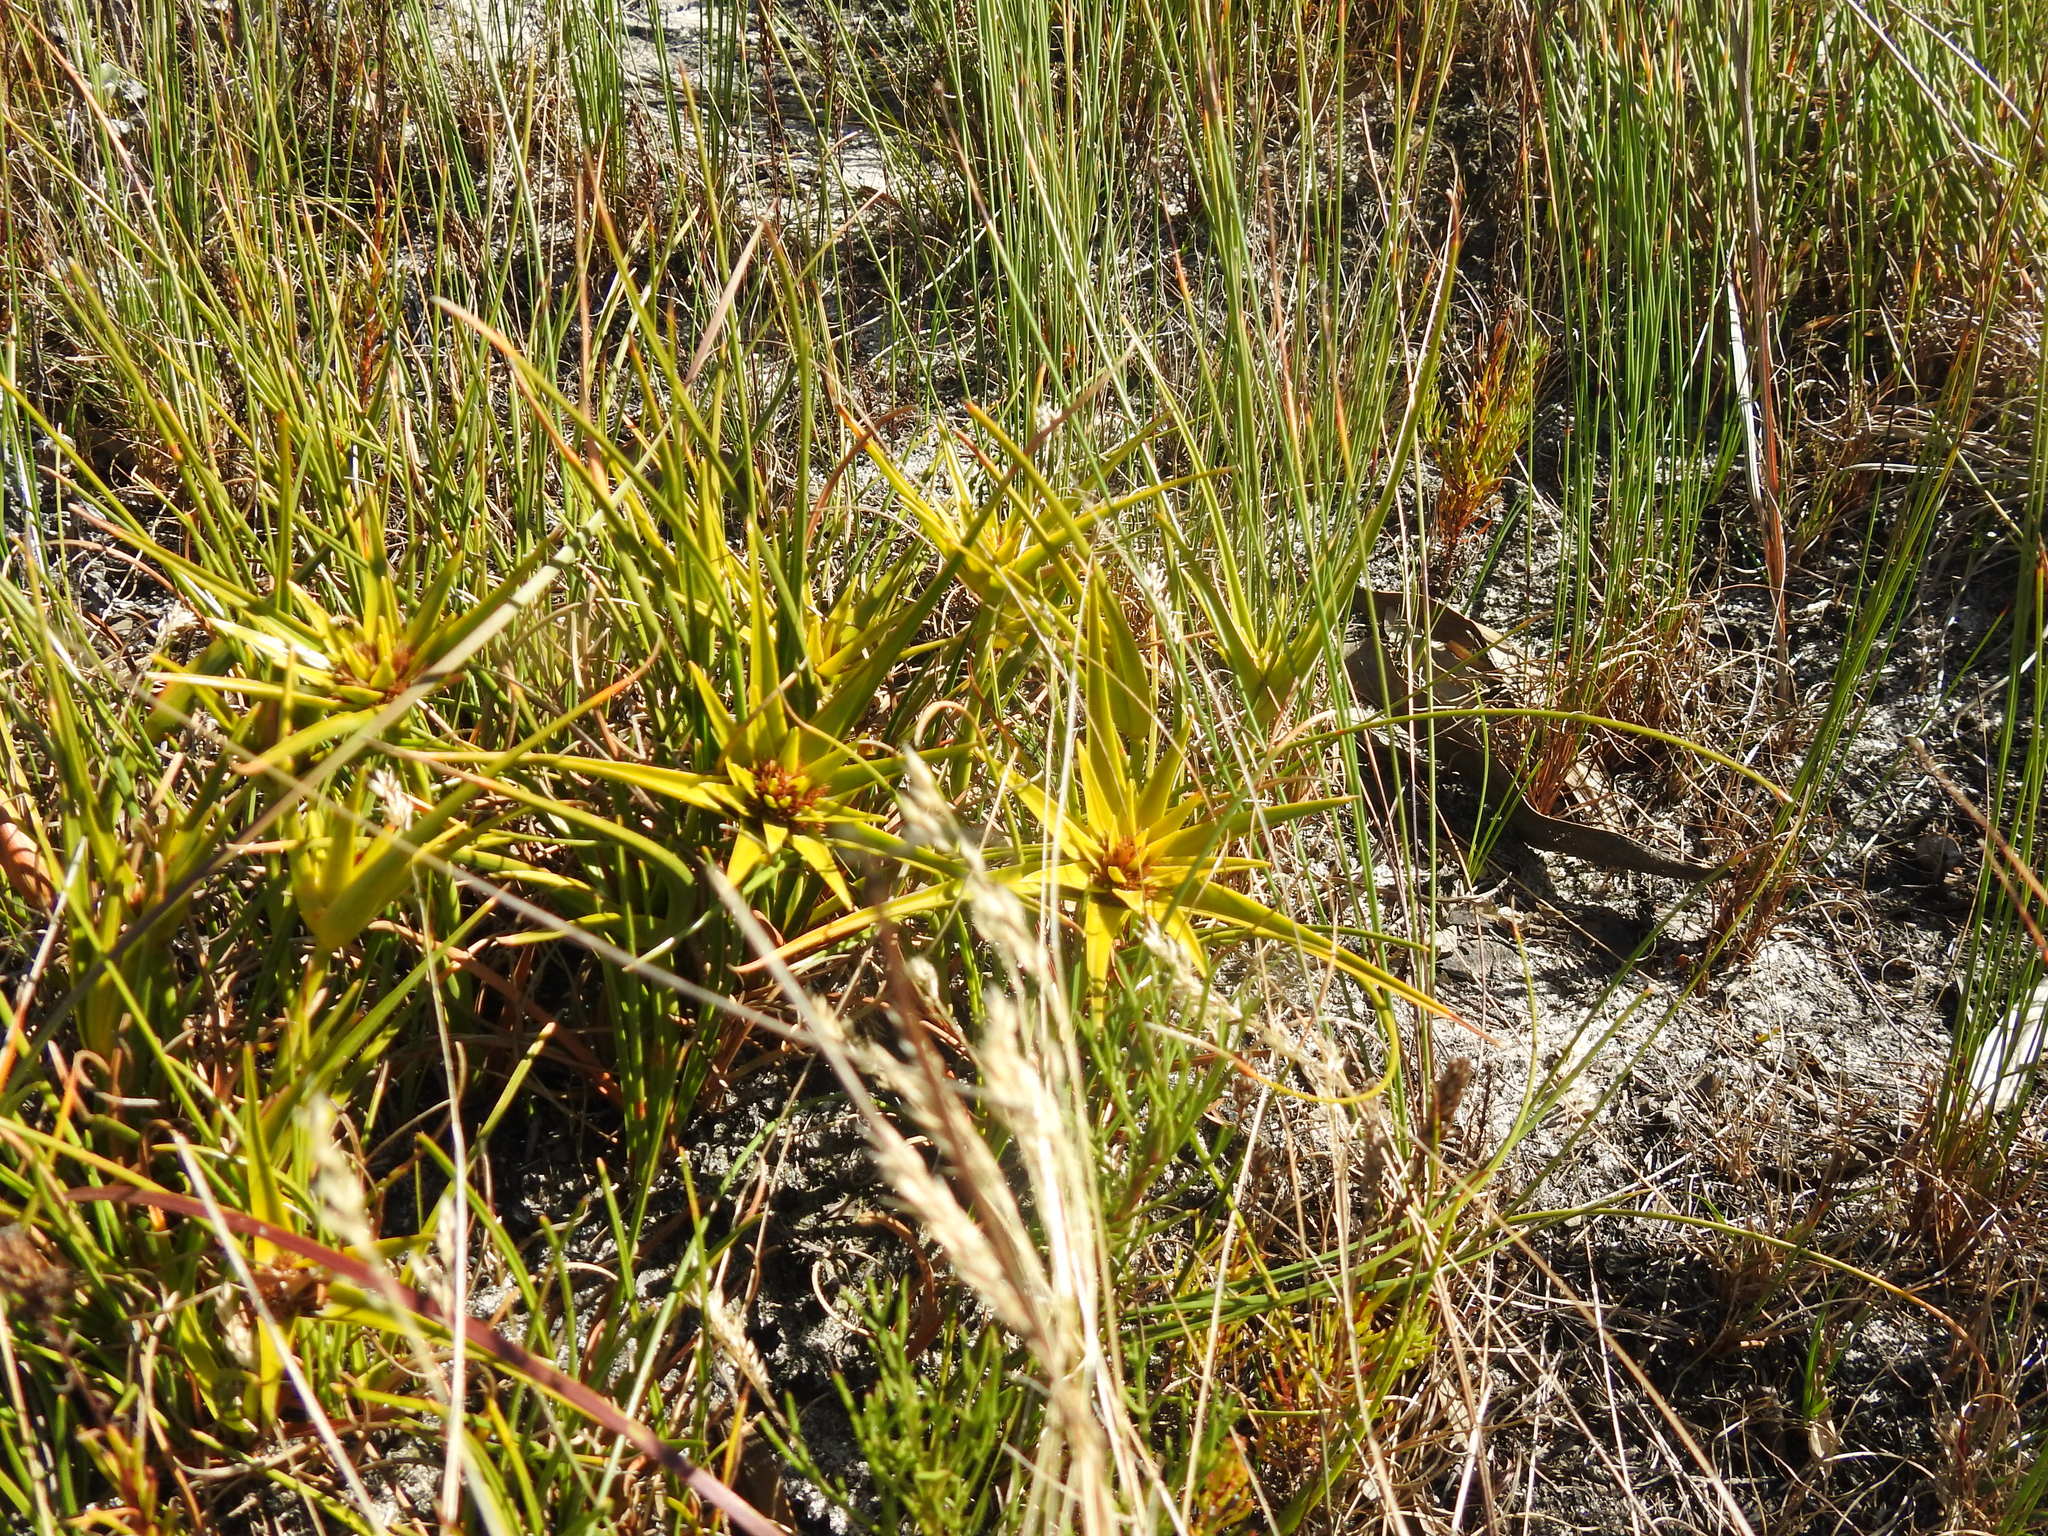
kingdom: Plantae
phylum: Tracheophyta
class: Liliopsida
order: Poales
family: Cyperaceae
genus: Ficinia
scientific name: Ficinia radiata
